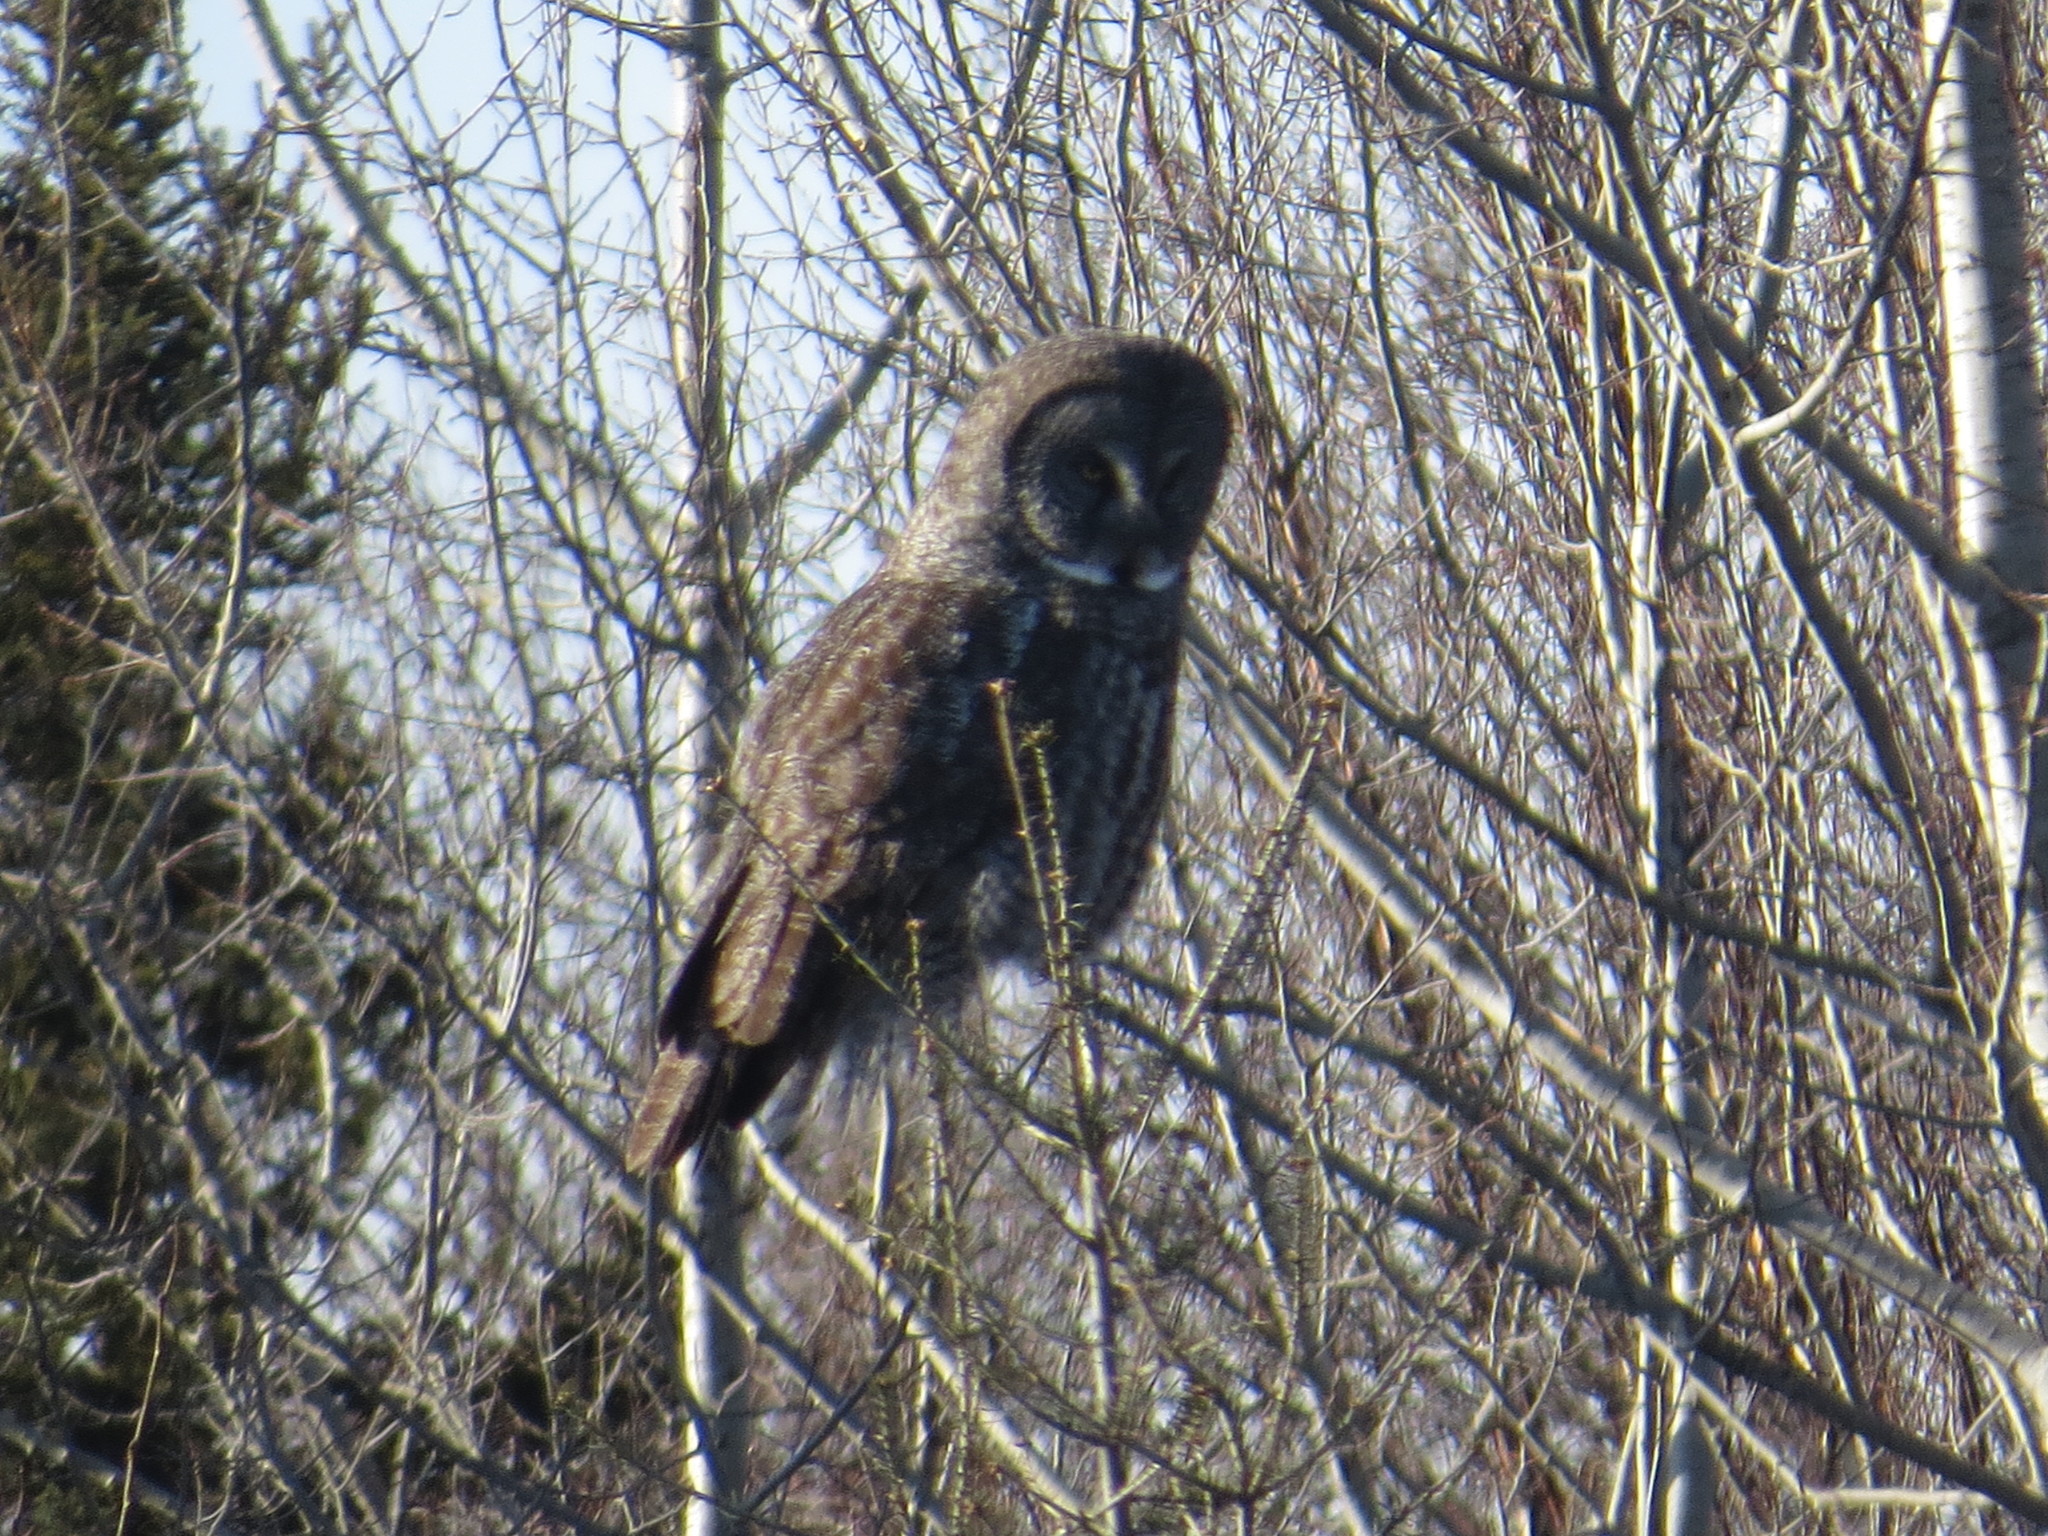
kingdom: Animalia
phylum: Chordata
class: Aves
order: Strigiformes
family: Strigidae
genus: Strix
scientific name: Strix nebulosa
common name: Great grey owl
